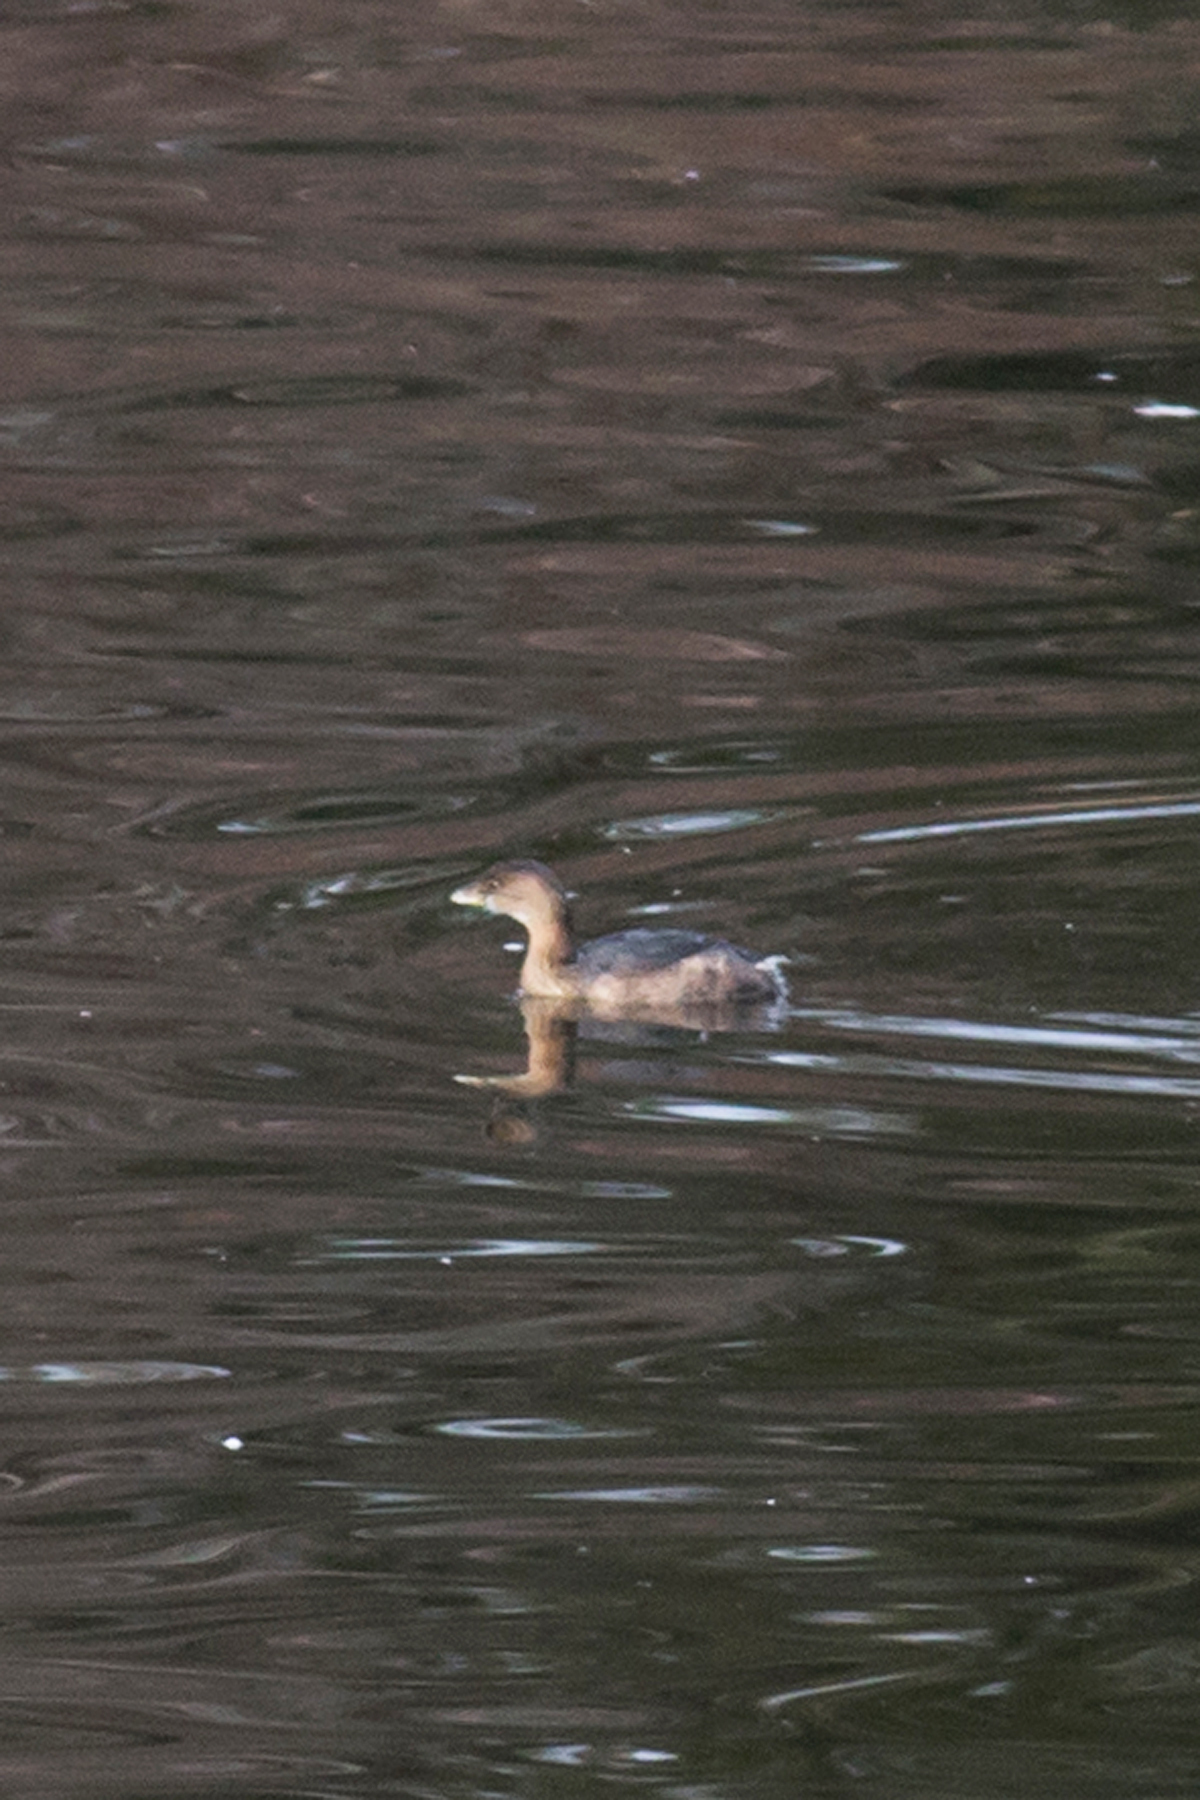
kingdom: Animalia
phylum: Chordata
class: Aves
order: Podicipediformes
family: Podicipedidae
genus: Podilymbus
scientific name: Podilymbus podiceps
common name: Pied-billed grebe
